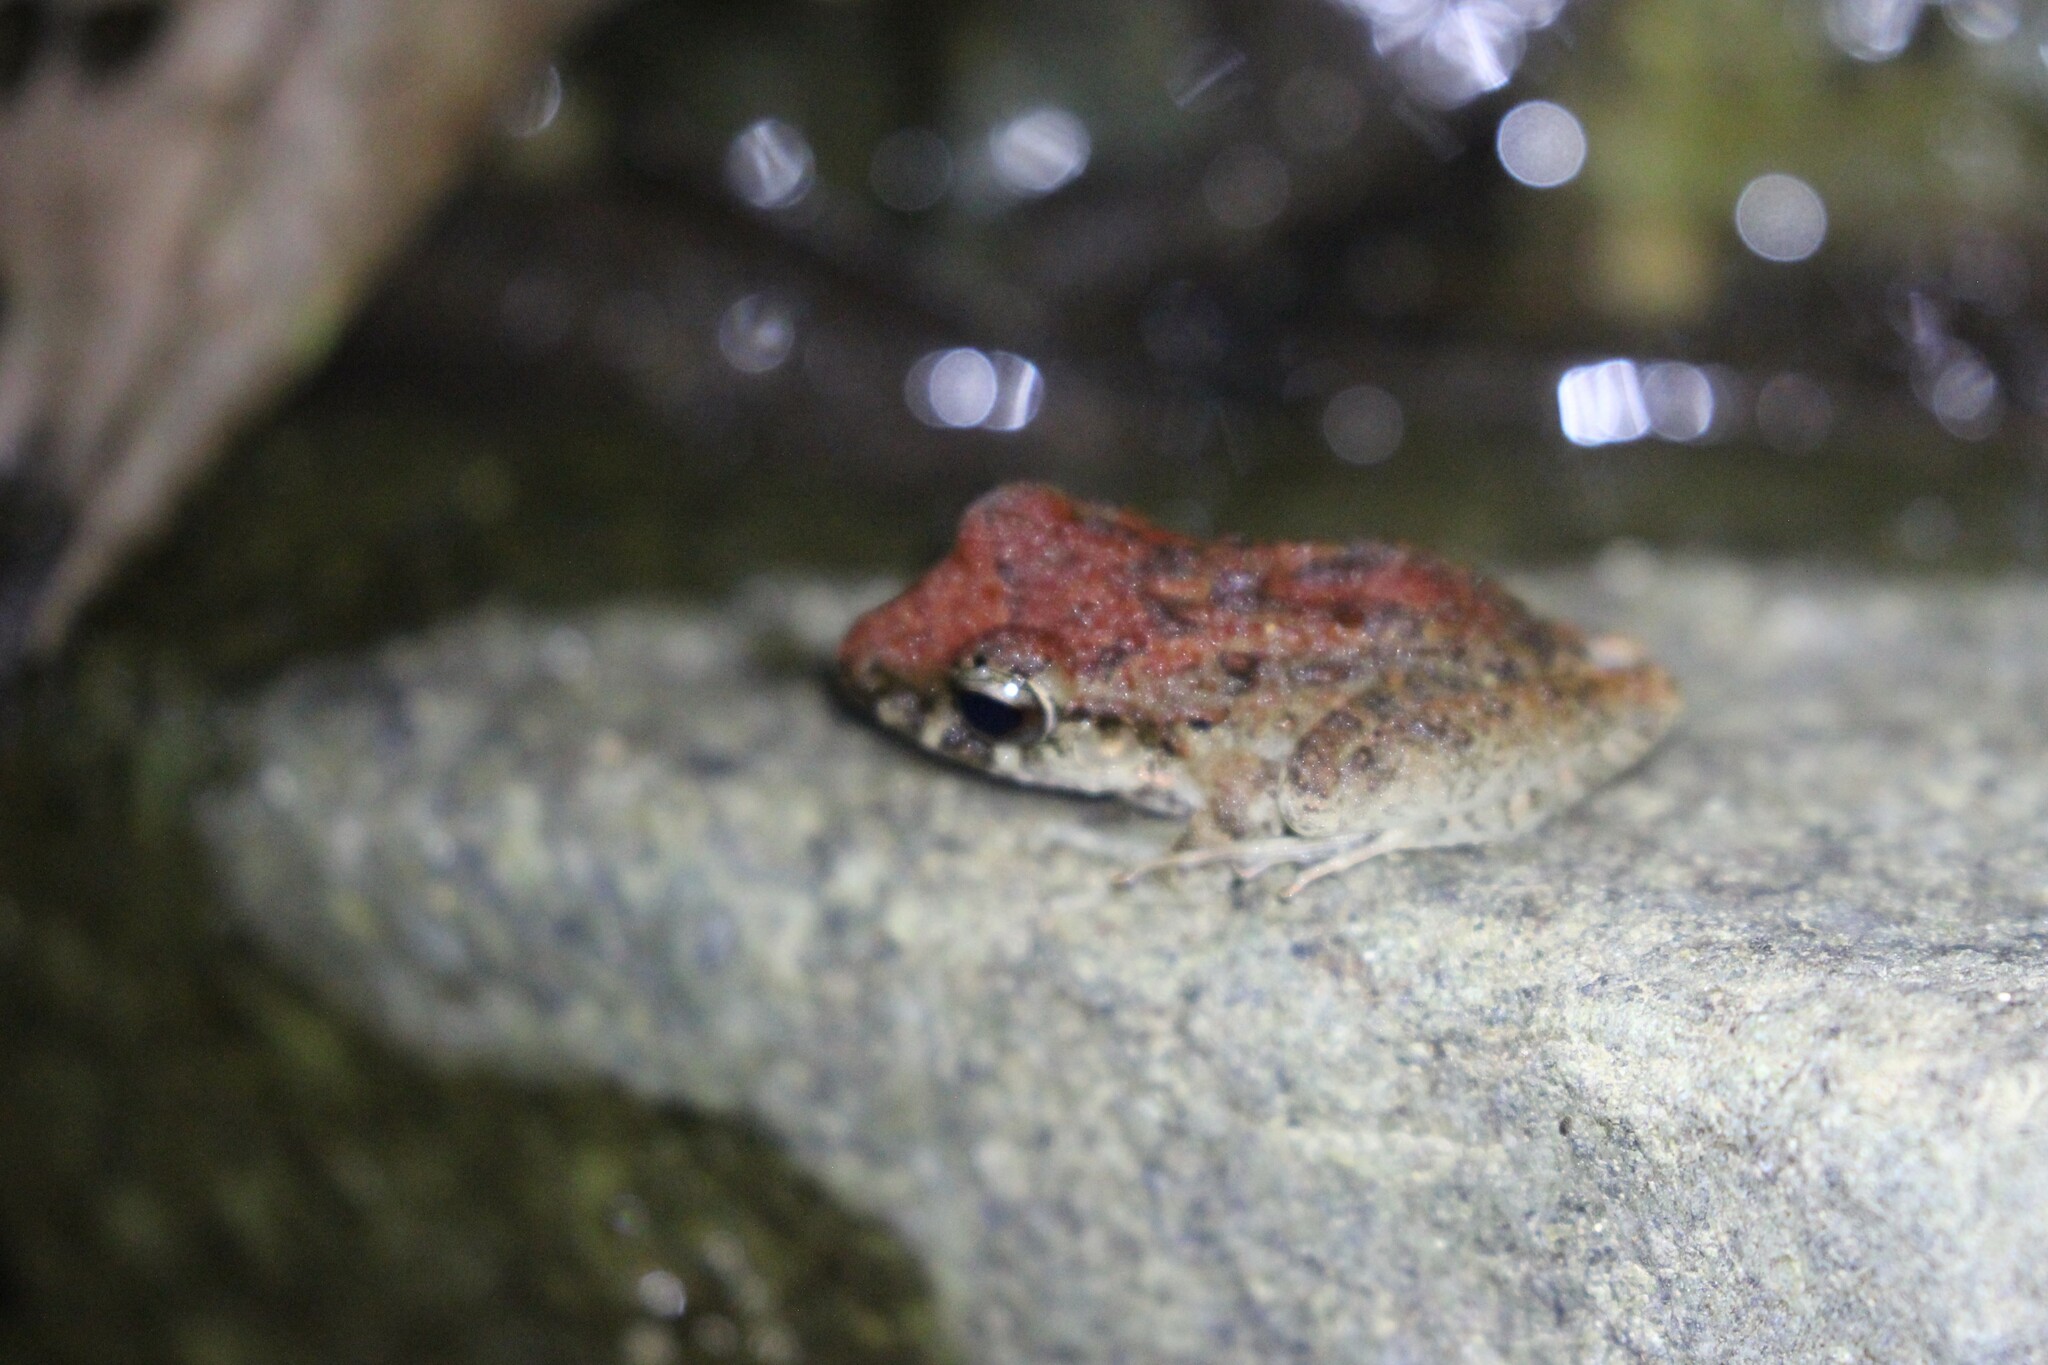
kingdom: Animalia
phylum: Chordata
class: Amphibia
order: Anura
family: Craugastoridae
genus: Craugastor
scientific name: Craugastor fitzingeri
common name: Fitzinger's robber frog
